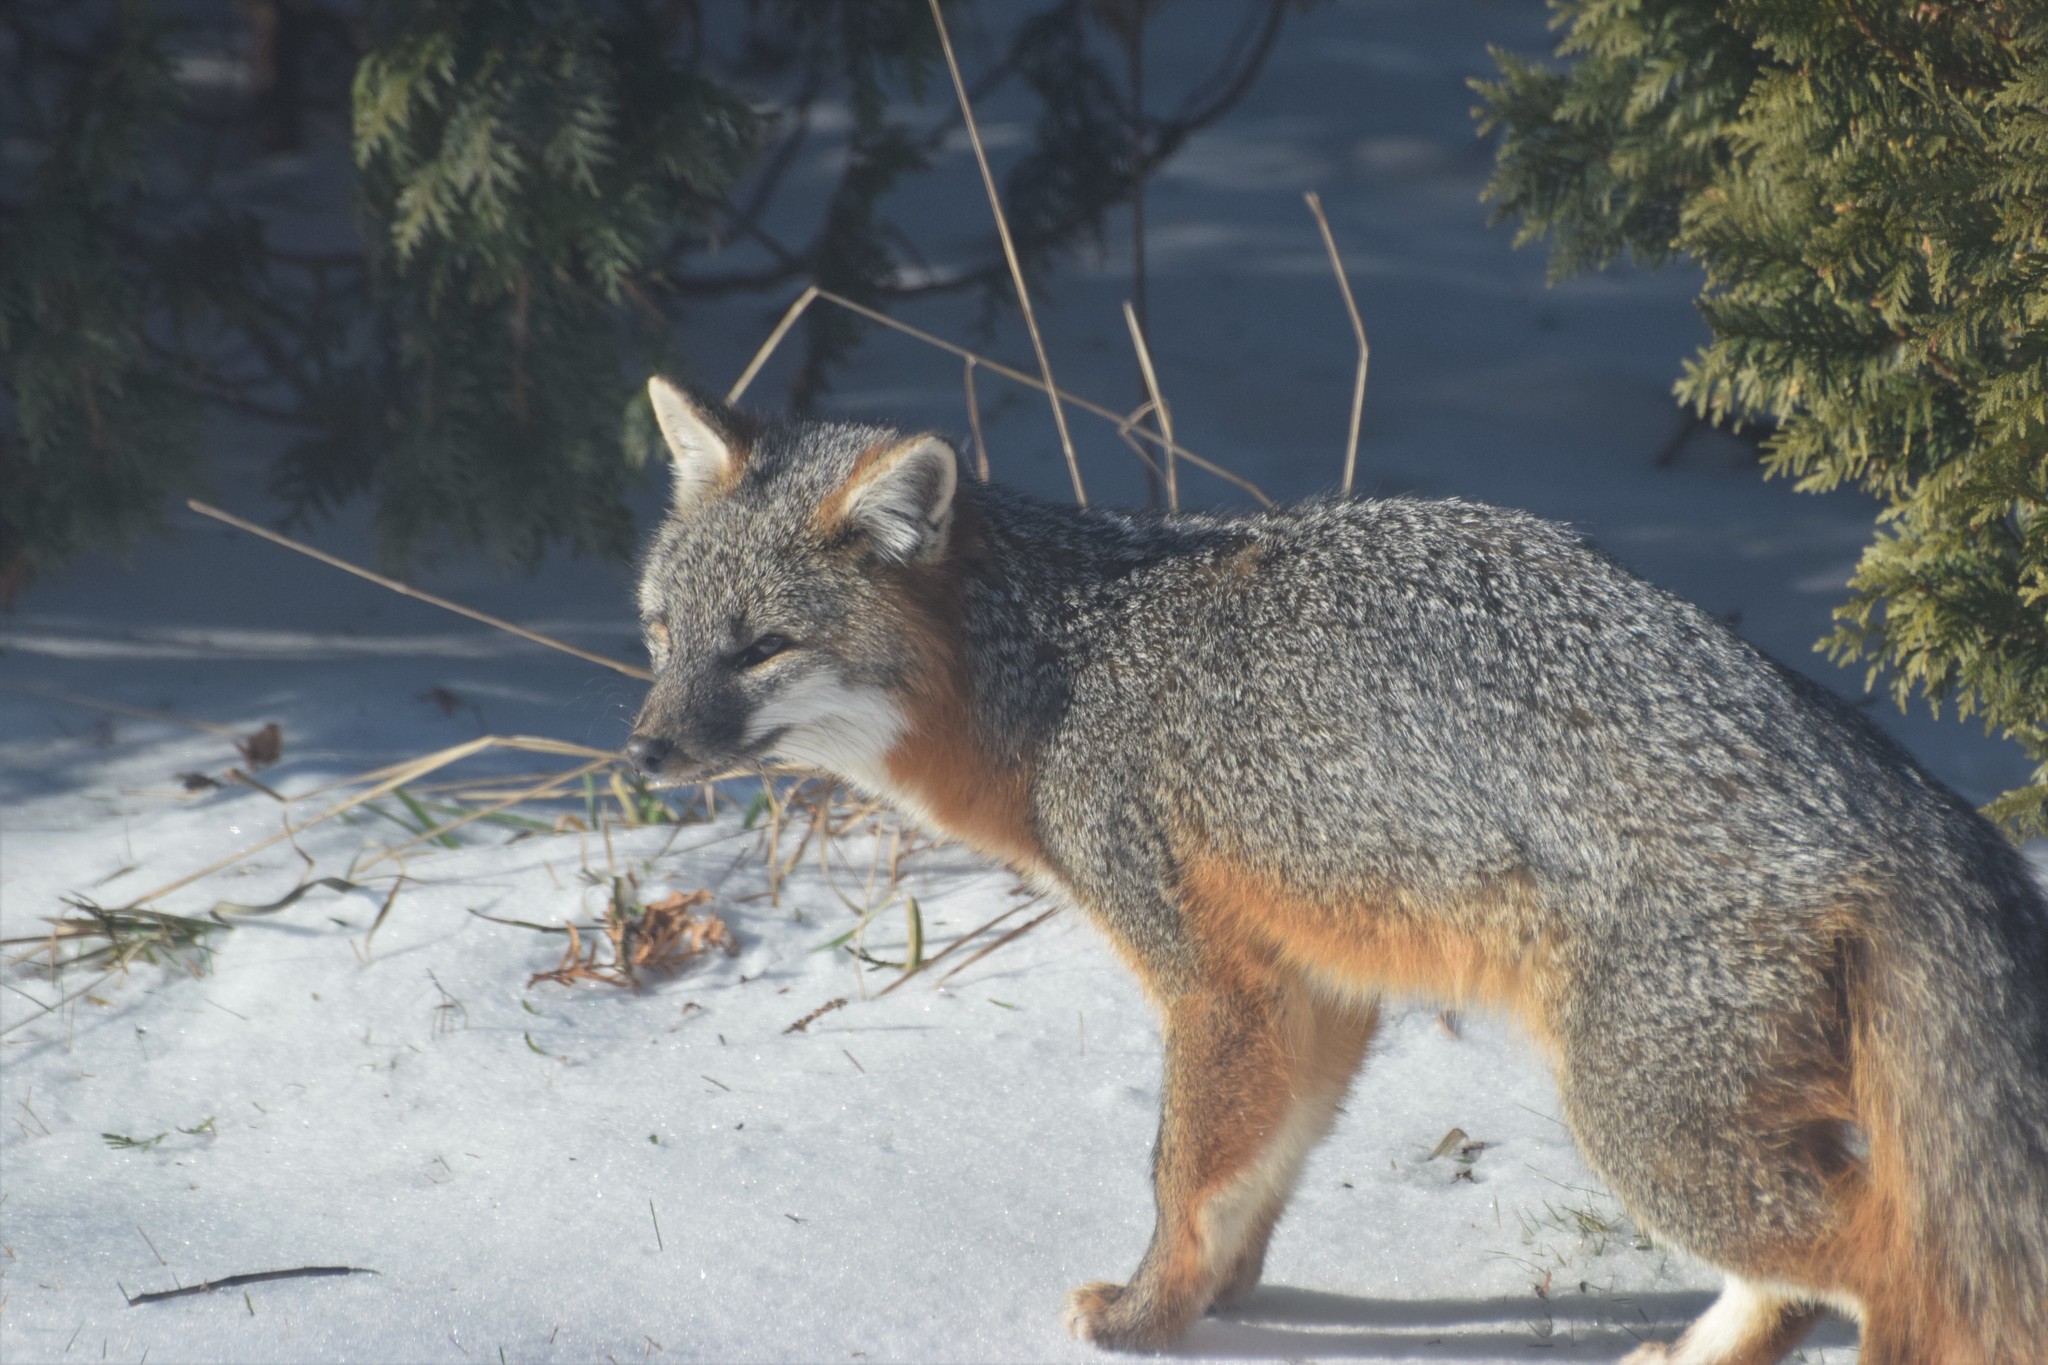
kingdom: Animalia
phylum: Chordata
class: Mammalia
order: Carnivora
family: Canidae
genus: Urocyon
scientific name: Urocyon cinereoargenteus
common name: Gray fox
